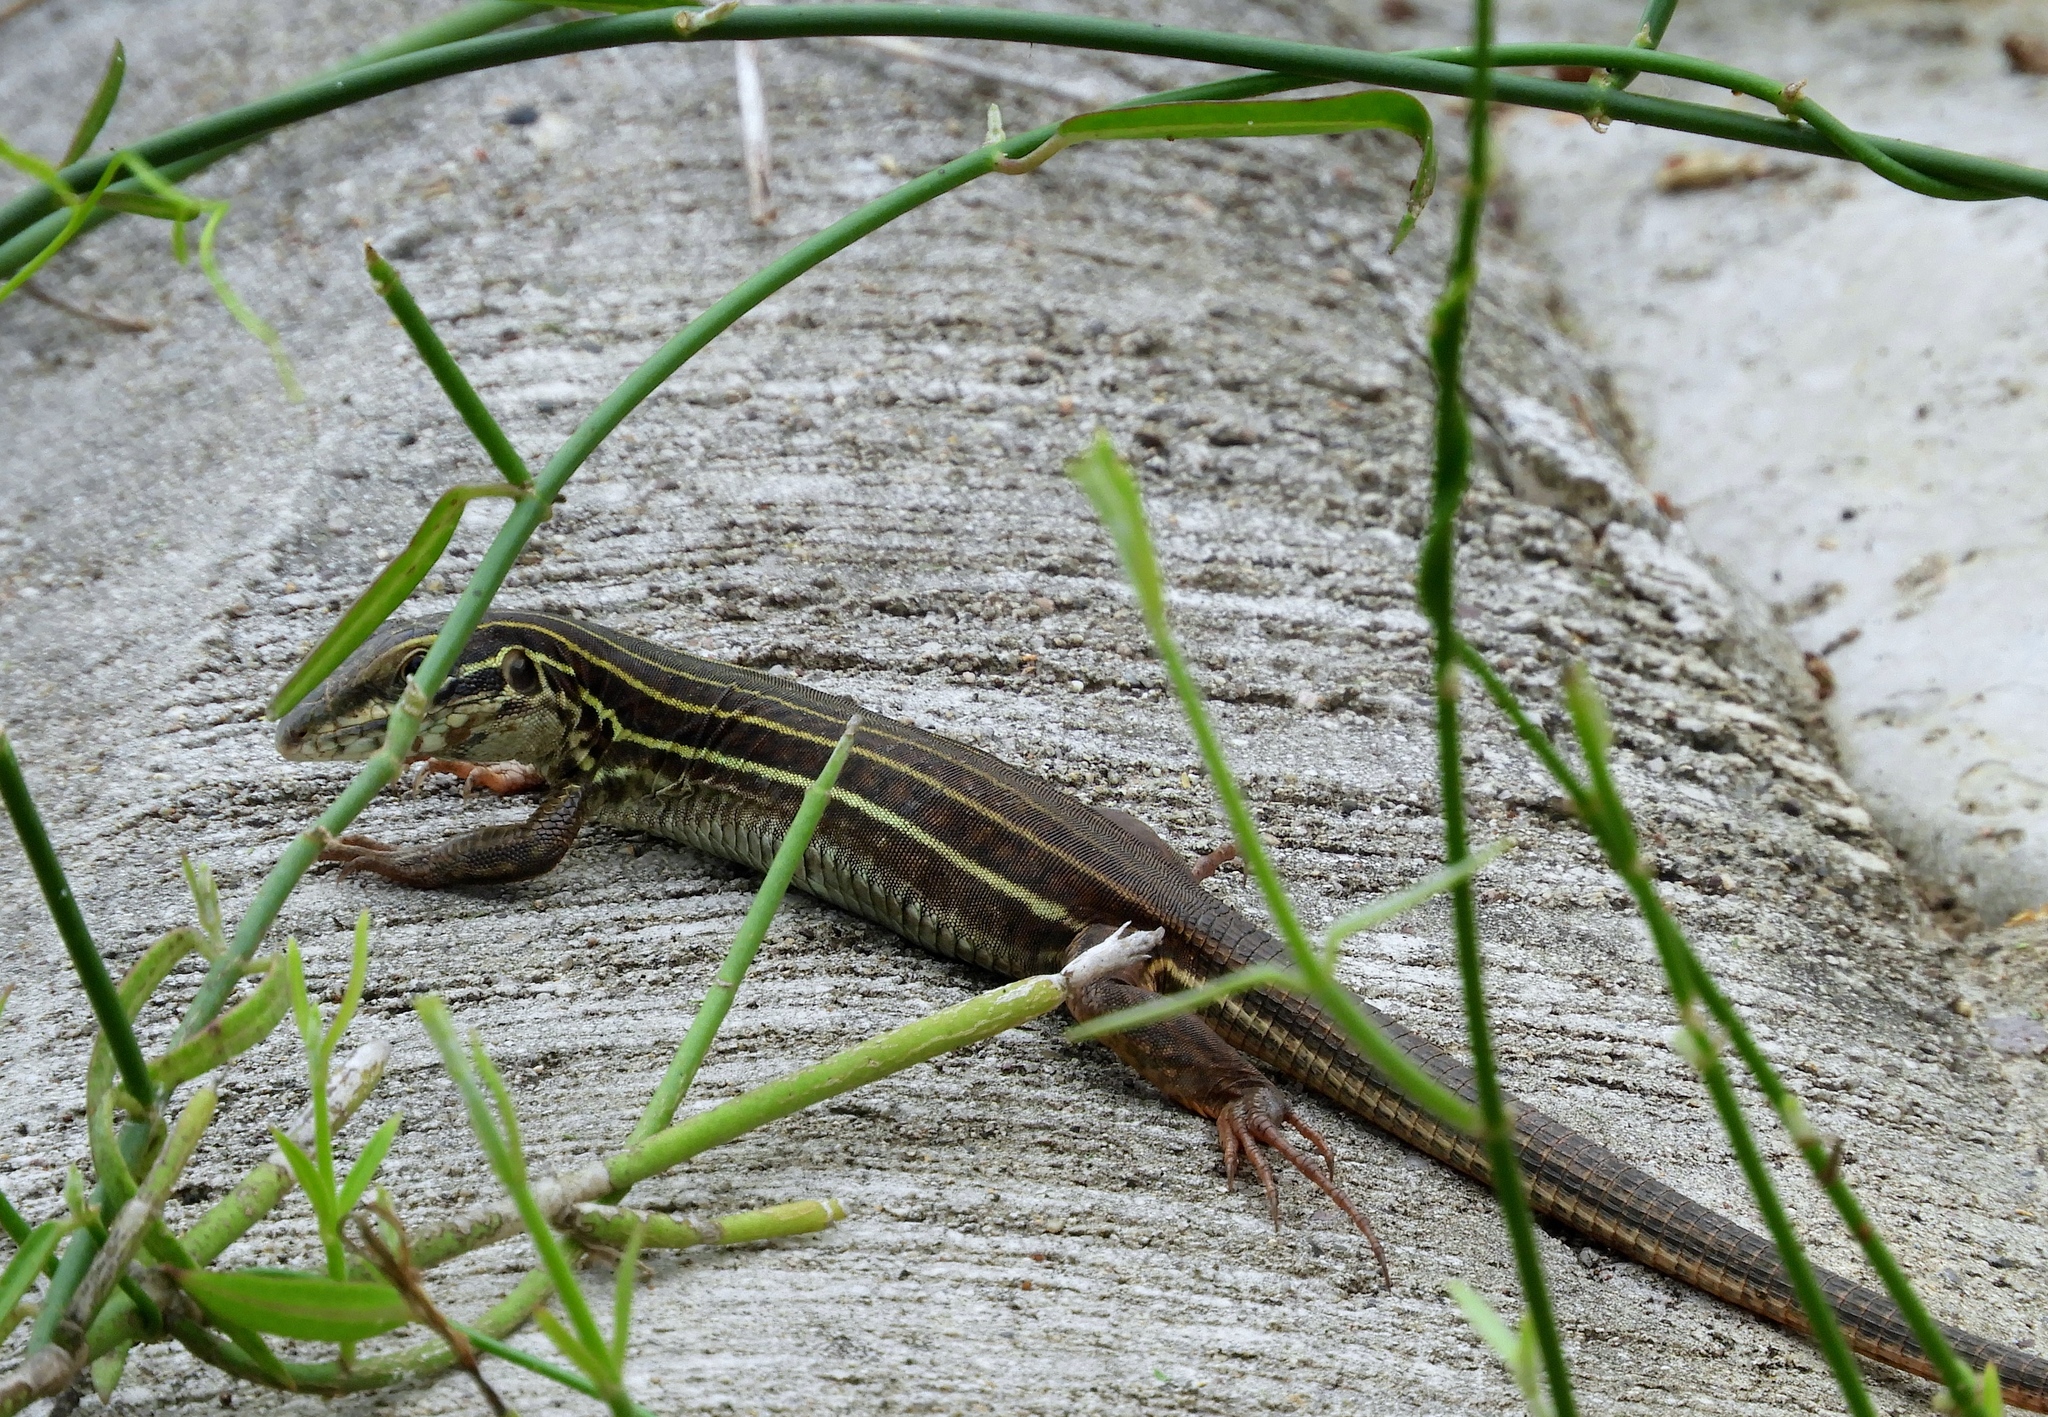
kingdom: Animalia
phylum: Chordata
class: Squamata
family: Teiidae
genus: Aspidoscelis
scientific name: Aspidoscelis costatus
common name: Western mexico whiptail
